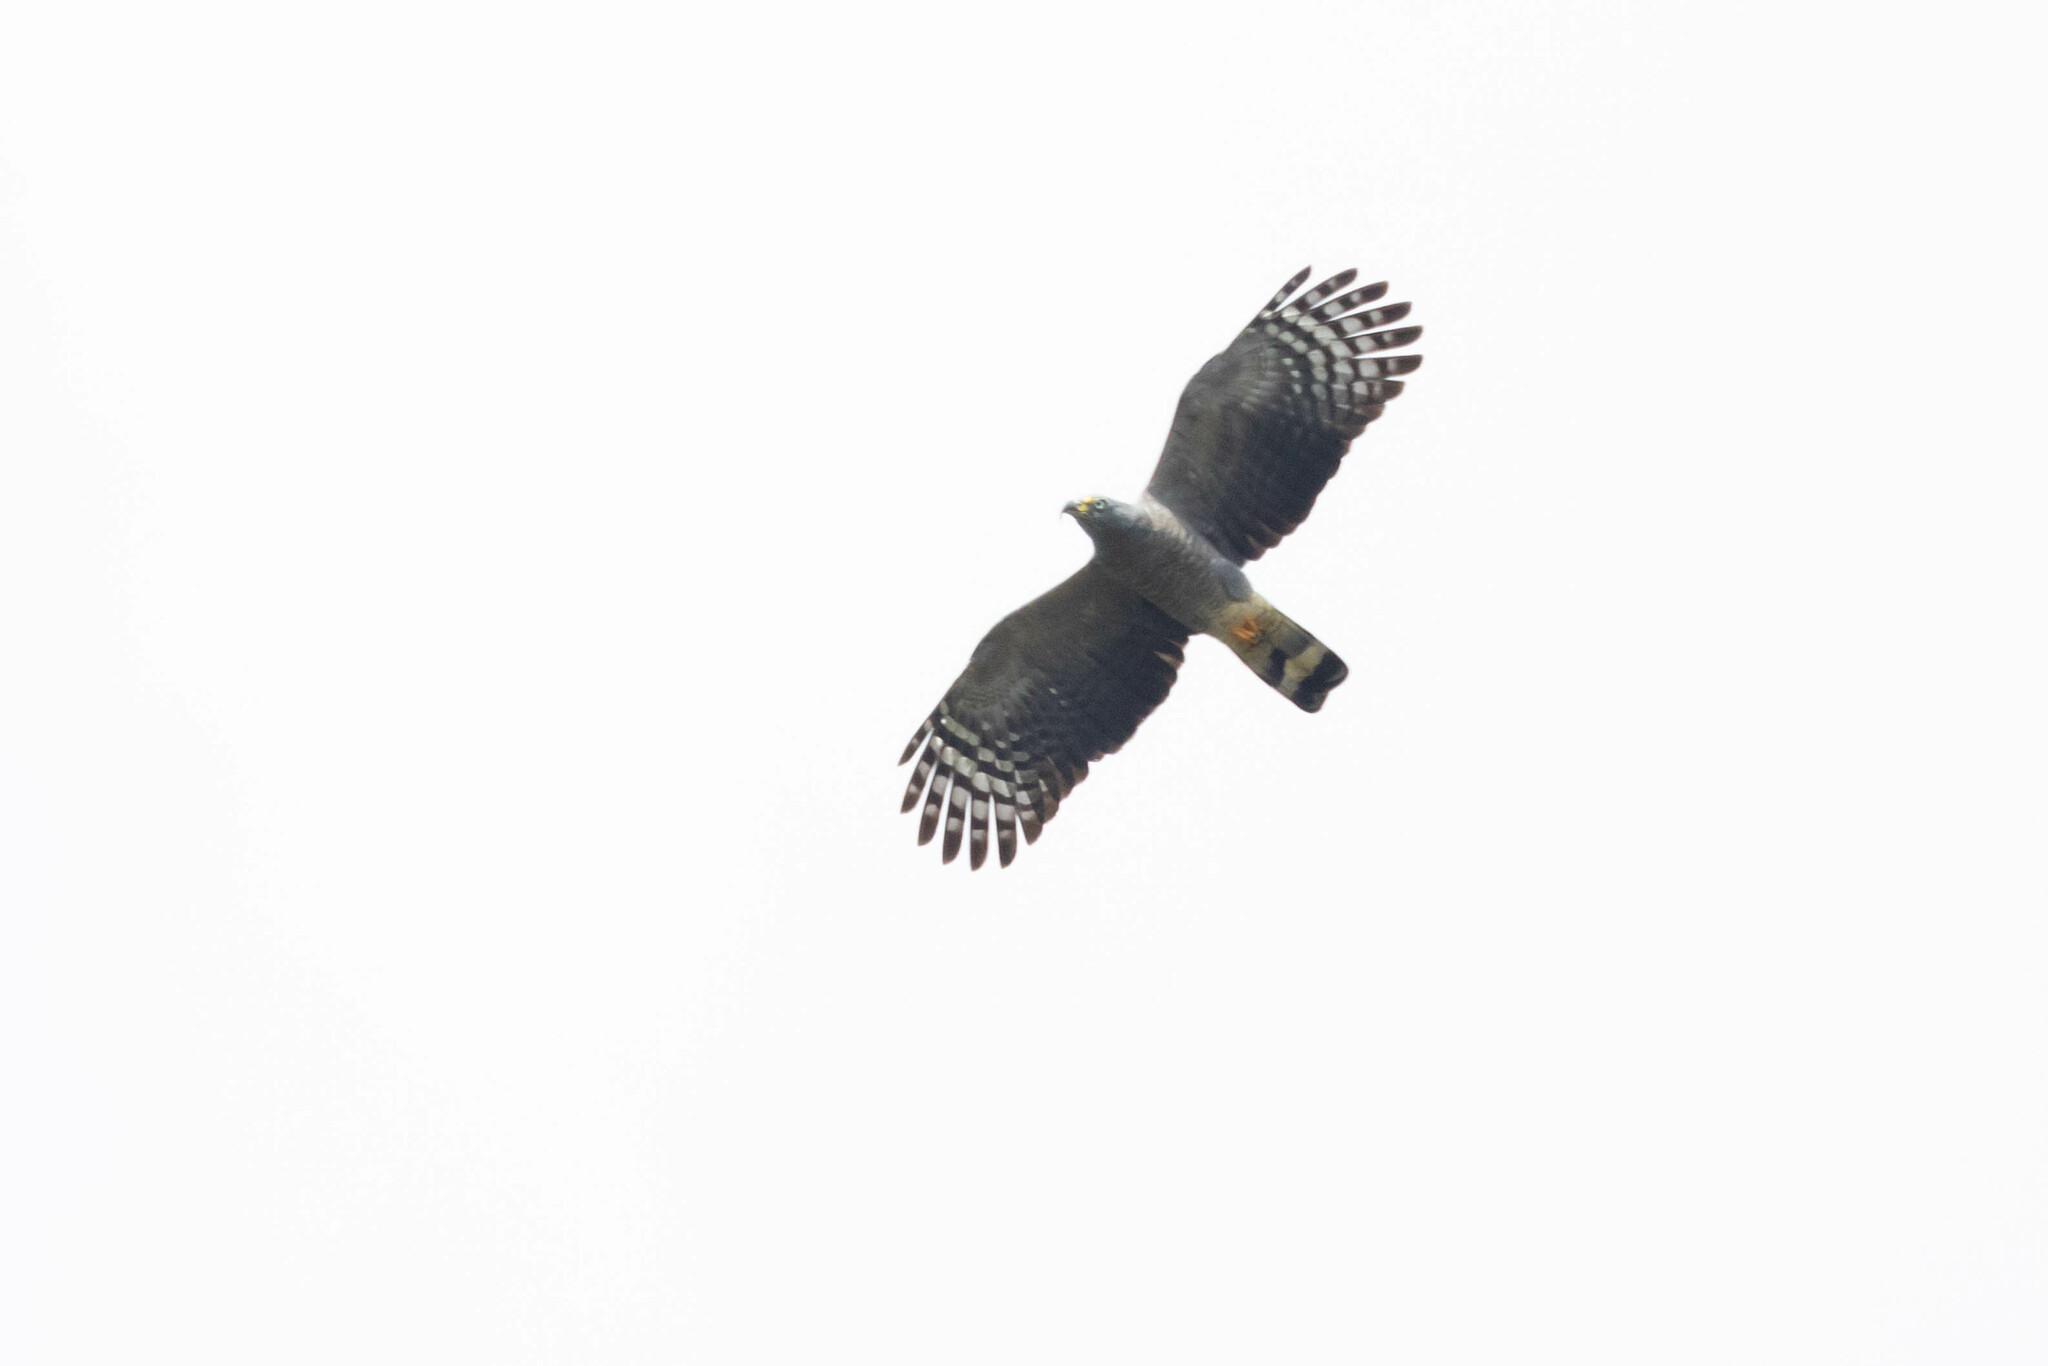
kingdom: Animalia
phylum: Chordata
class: Aves
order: Accipitriformes
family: Accipitridae
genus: Chondrohierax
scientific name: Chondrohierax uncinatus
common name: Hook-billed kite
